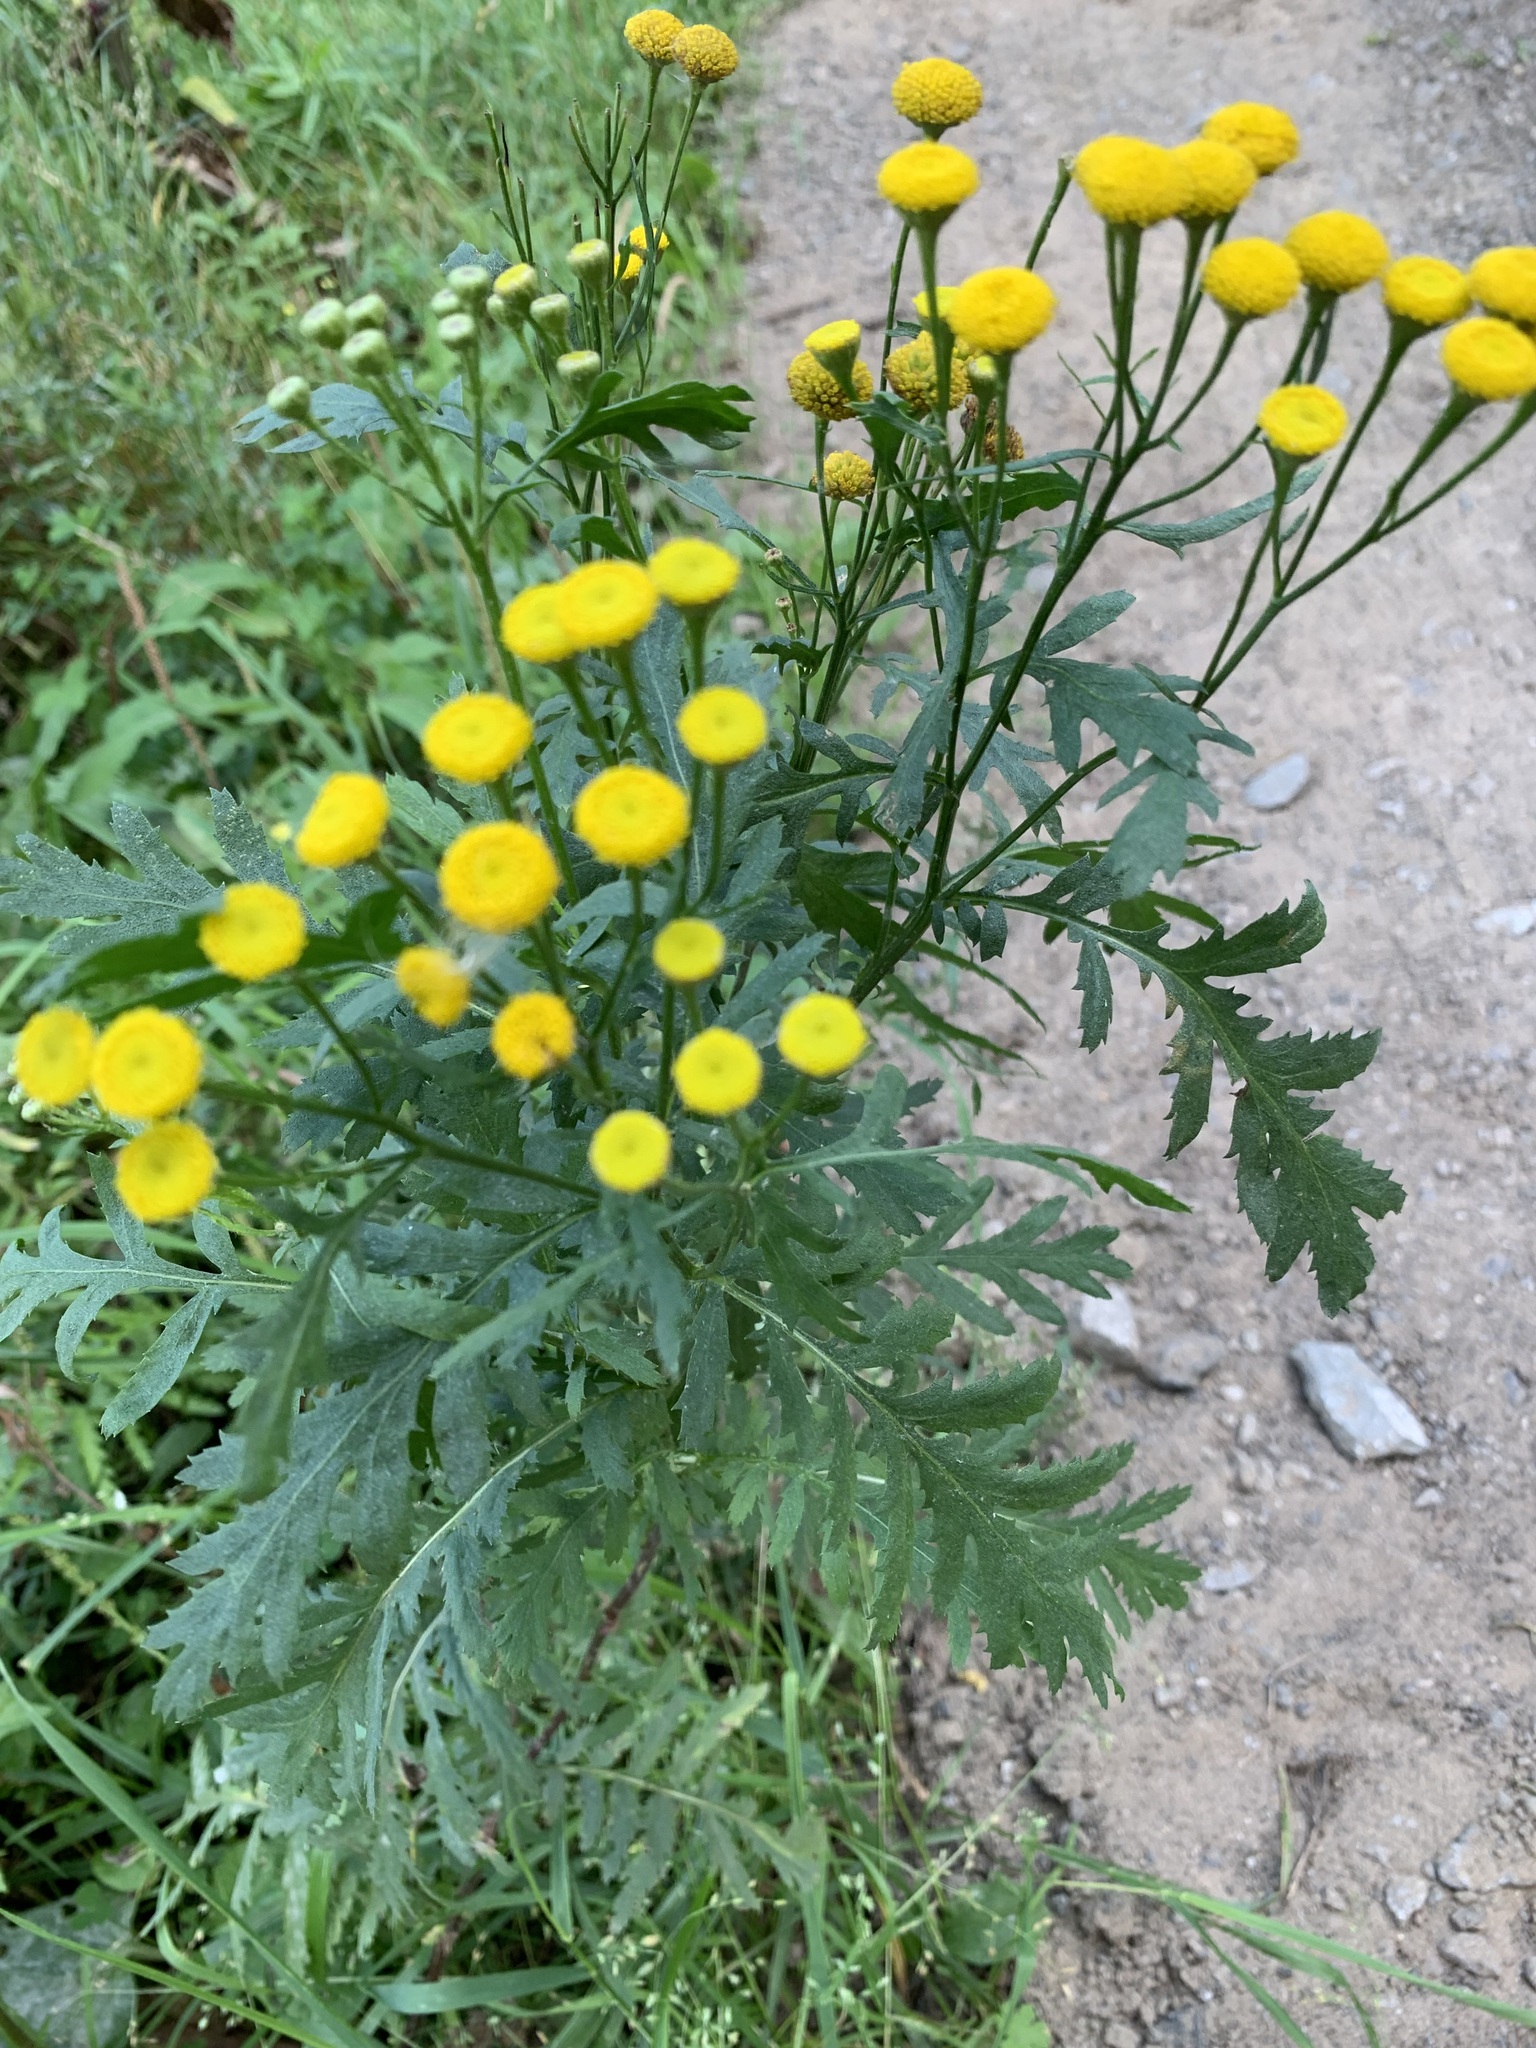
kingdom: Plantae
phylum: Tracheophyta
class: Magnoliopsida
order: Asterales
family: Asteraceae
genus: Tanacetum
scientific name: Tanacetum vulgare
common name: Common tansy
